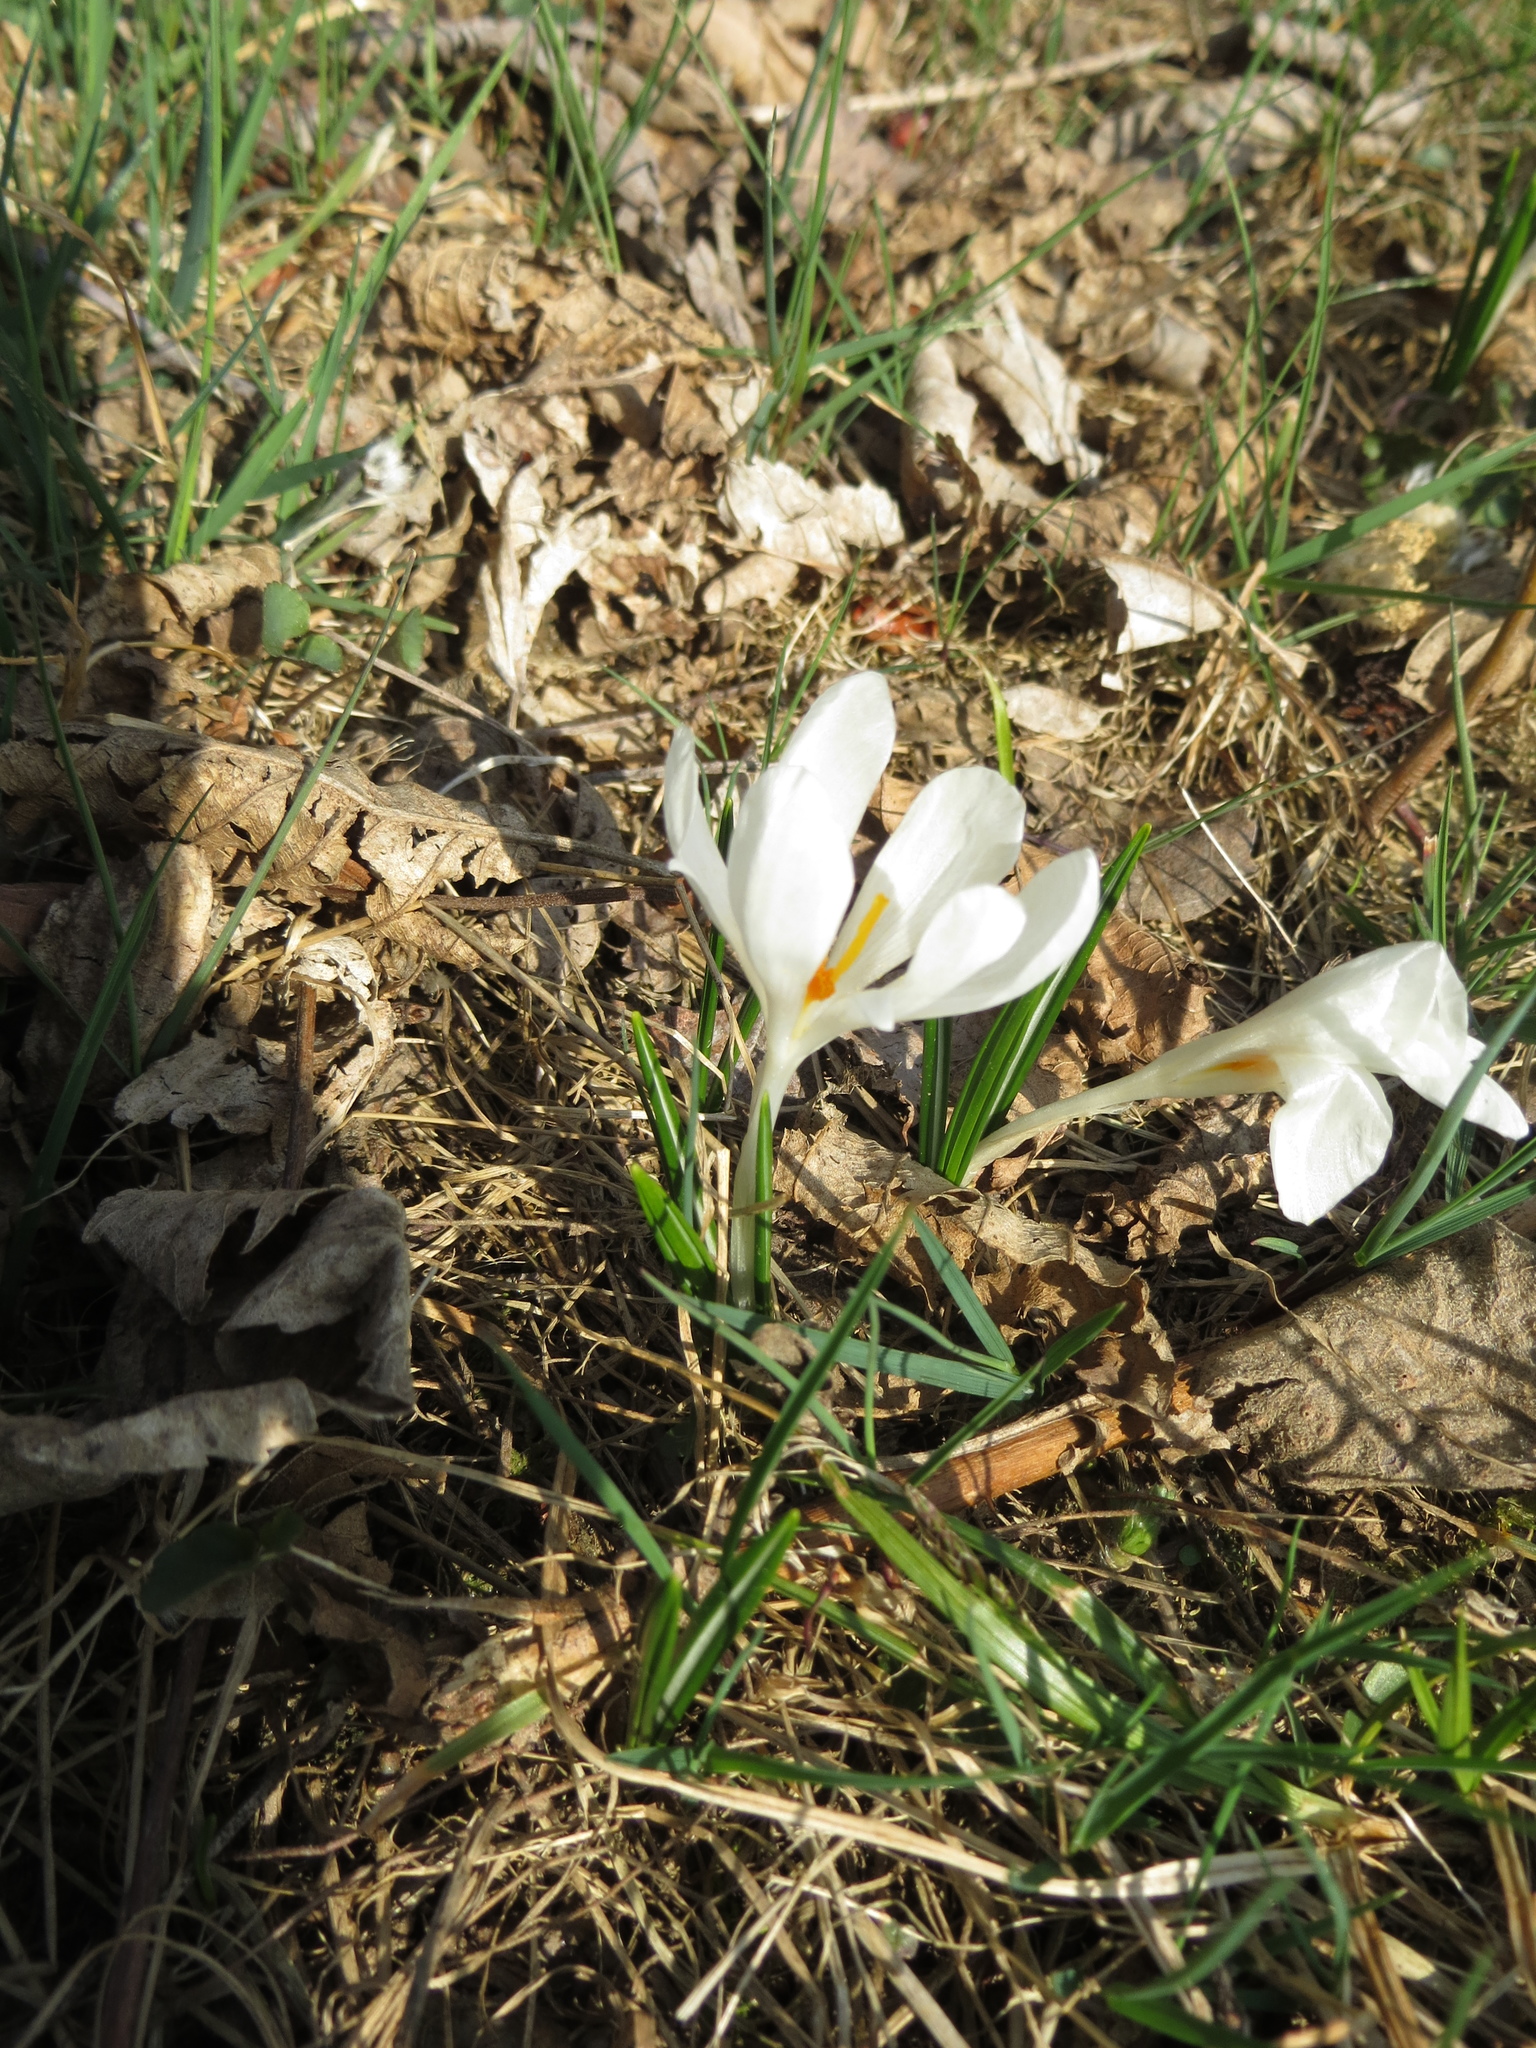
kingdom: Plantae
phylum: Tracheophyta
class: Liliopsida
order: Asparagales
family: Iridaceae
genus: Crocus
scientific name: Crocus vernus
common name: Spring crocus
